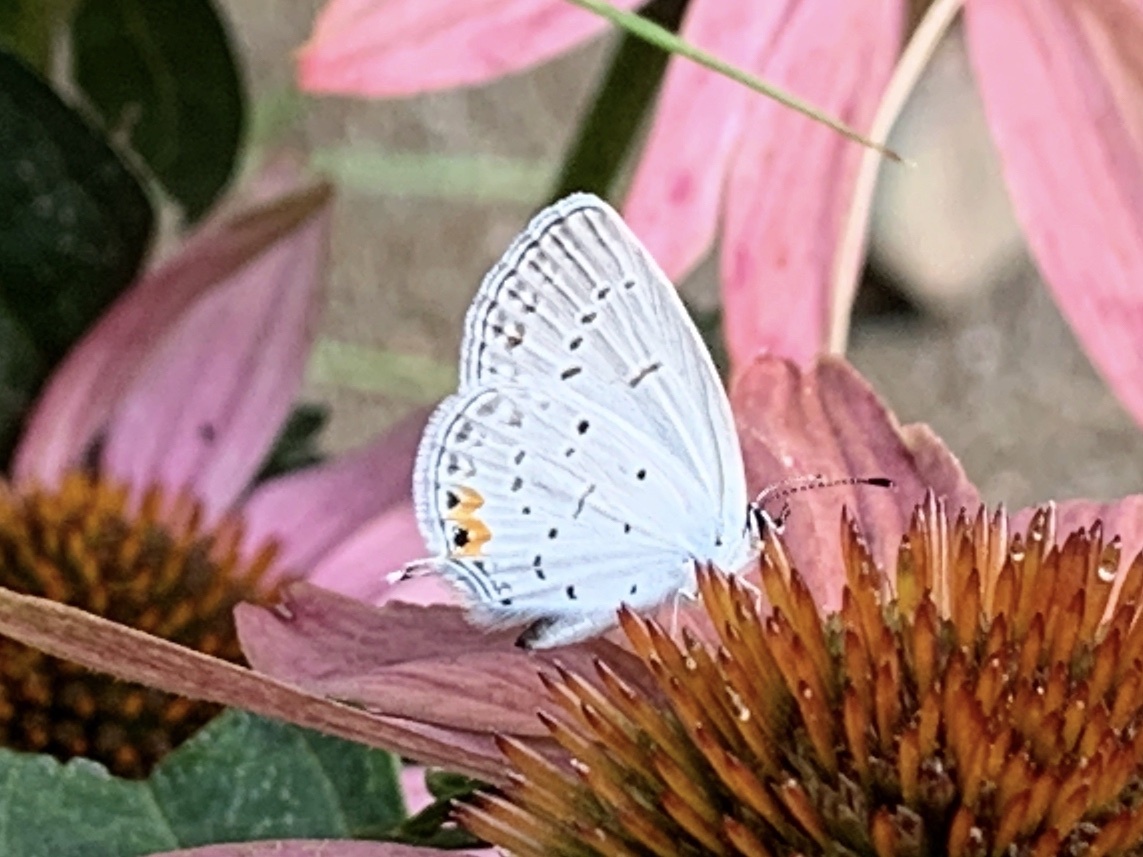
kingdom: Animalia
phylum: Arthropoda
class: Insecta
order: Lepidoptera
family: Lycaenidae
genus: Elkalyce
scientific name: Elkalyce comyntas
